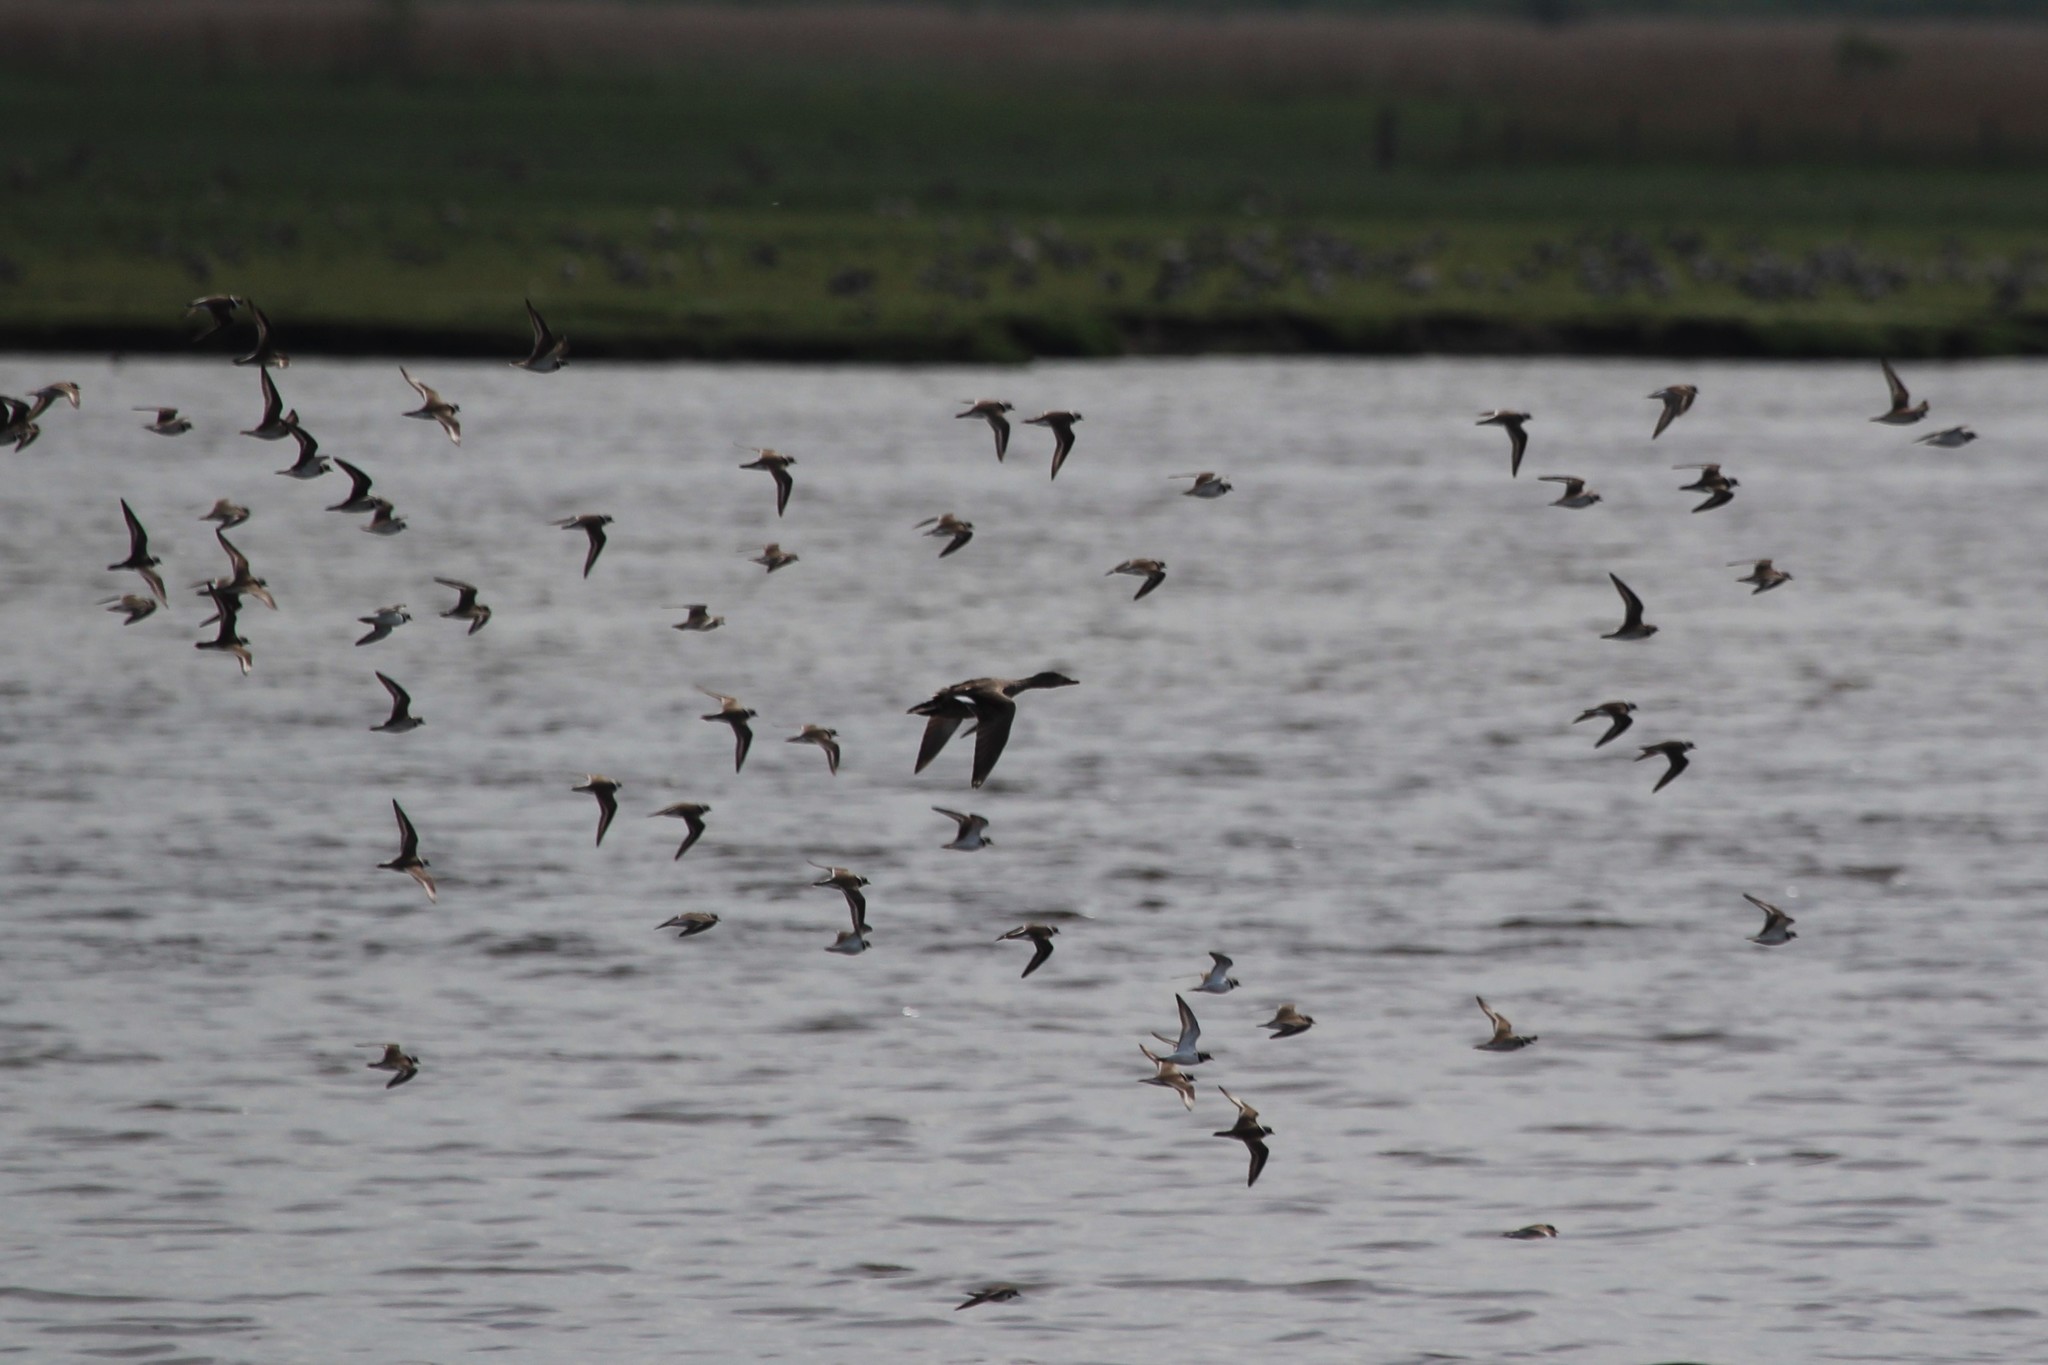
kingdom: Animalia
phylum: Chordata
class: Aves
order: Charadriiformes
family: Charadriidae
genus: Charadrius
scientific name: Charadrius hiaticula
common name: Common ringed plover
